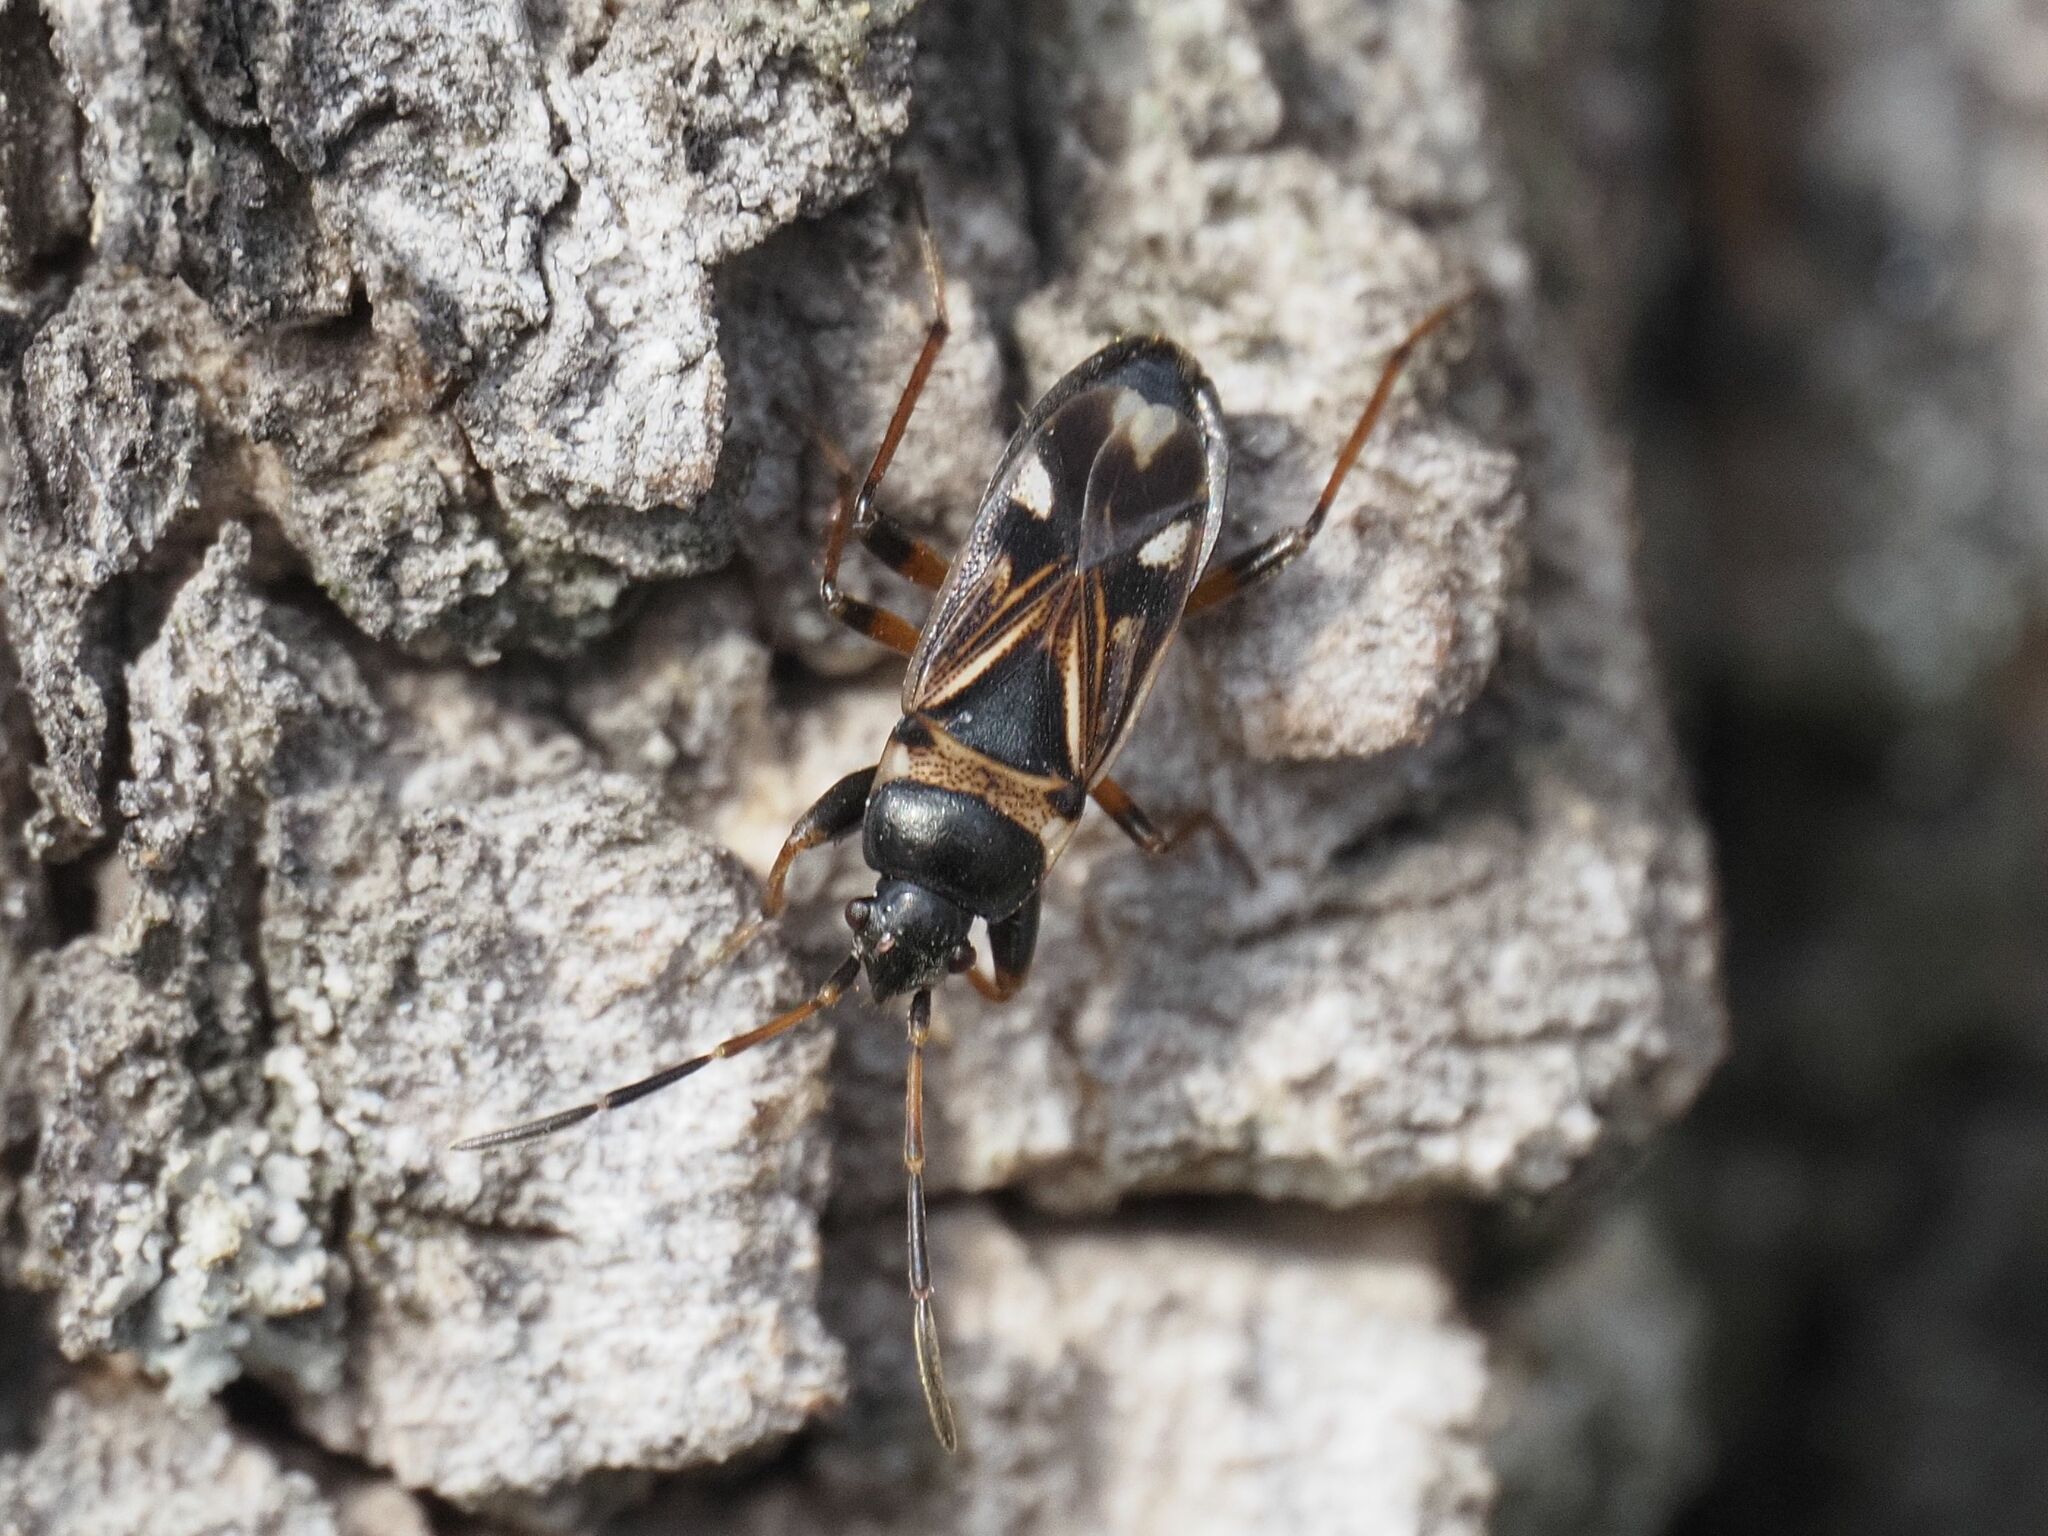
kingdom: Animalia
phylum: Arthropoda
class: Insecta
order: Hemiptera
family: Rhyparochromidae
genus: Raglius
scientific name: Raglius alboacuminatus
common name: Dirt-colored seed bug
